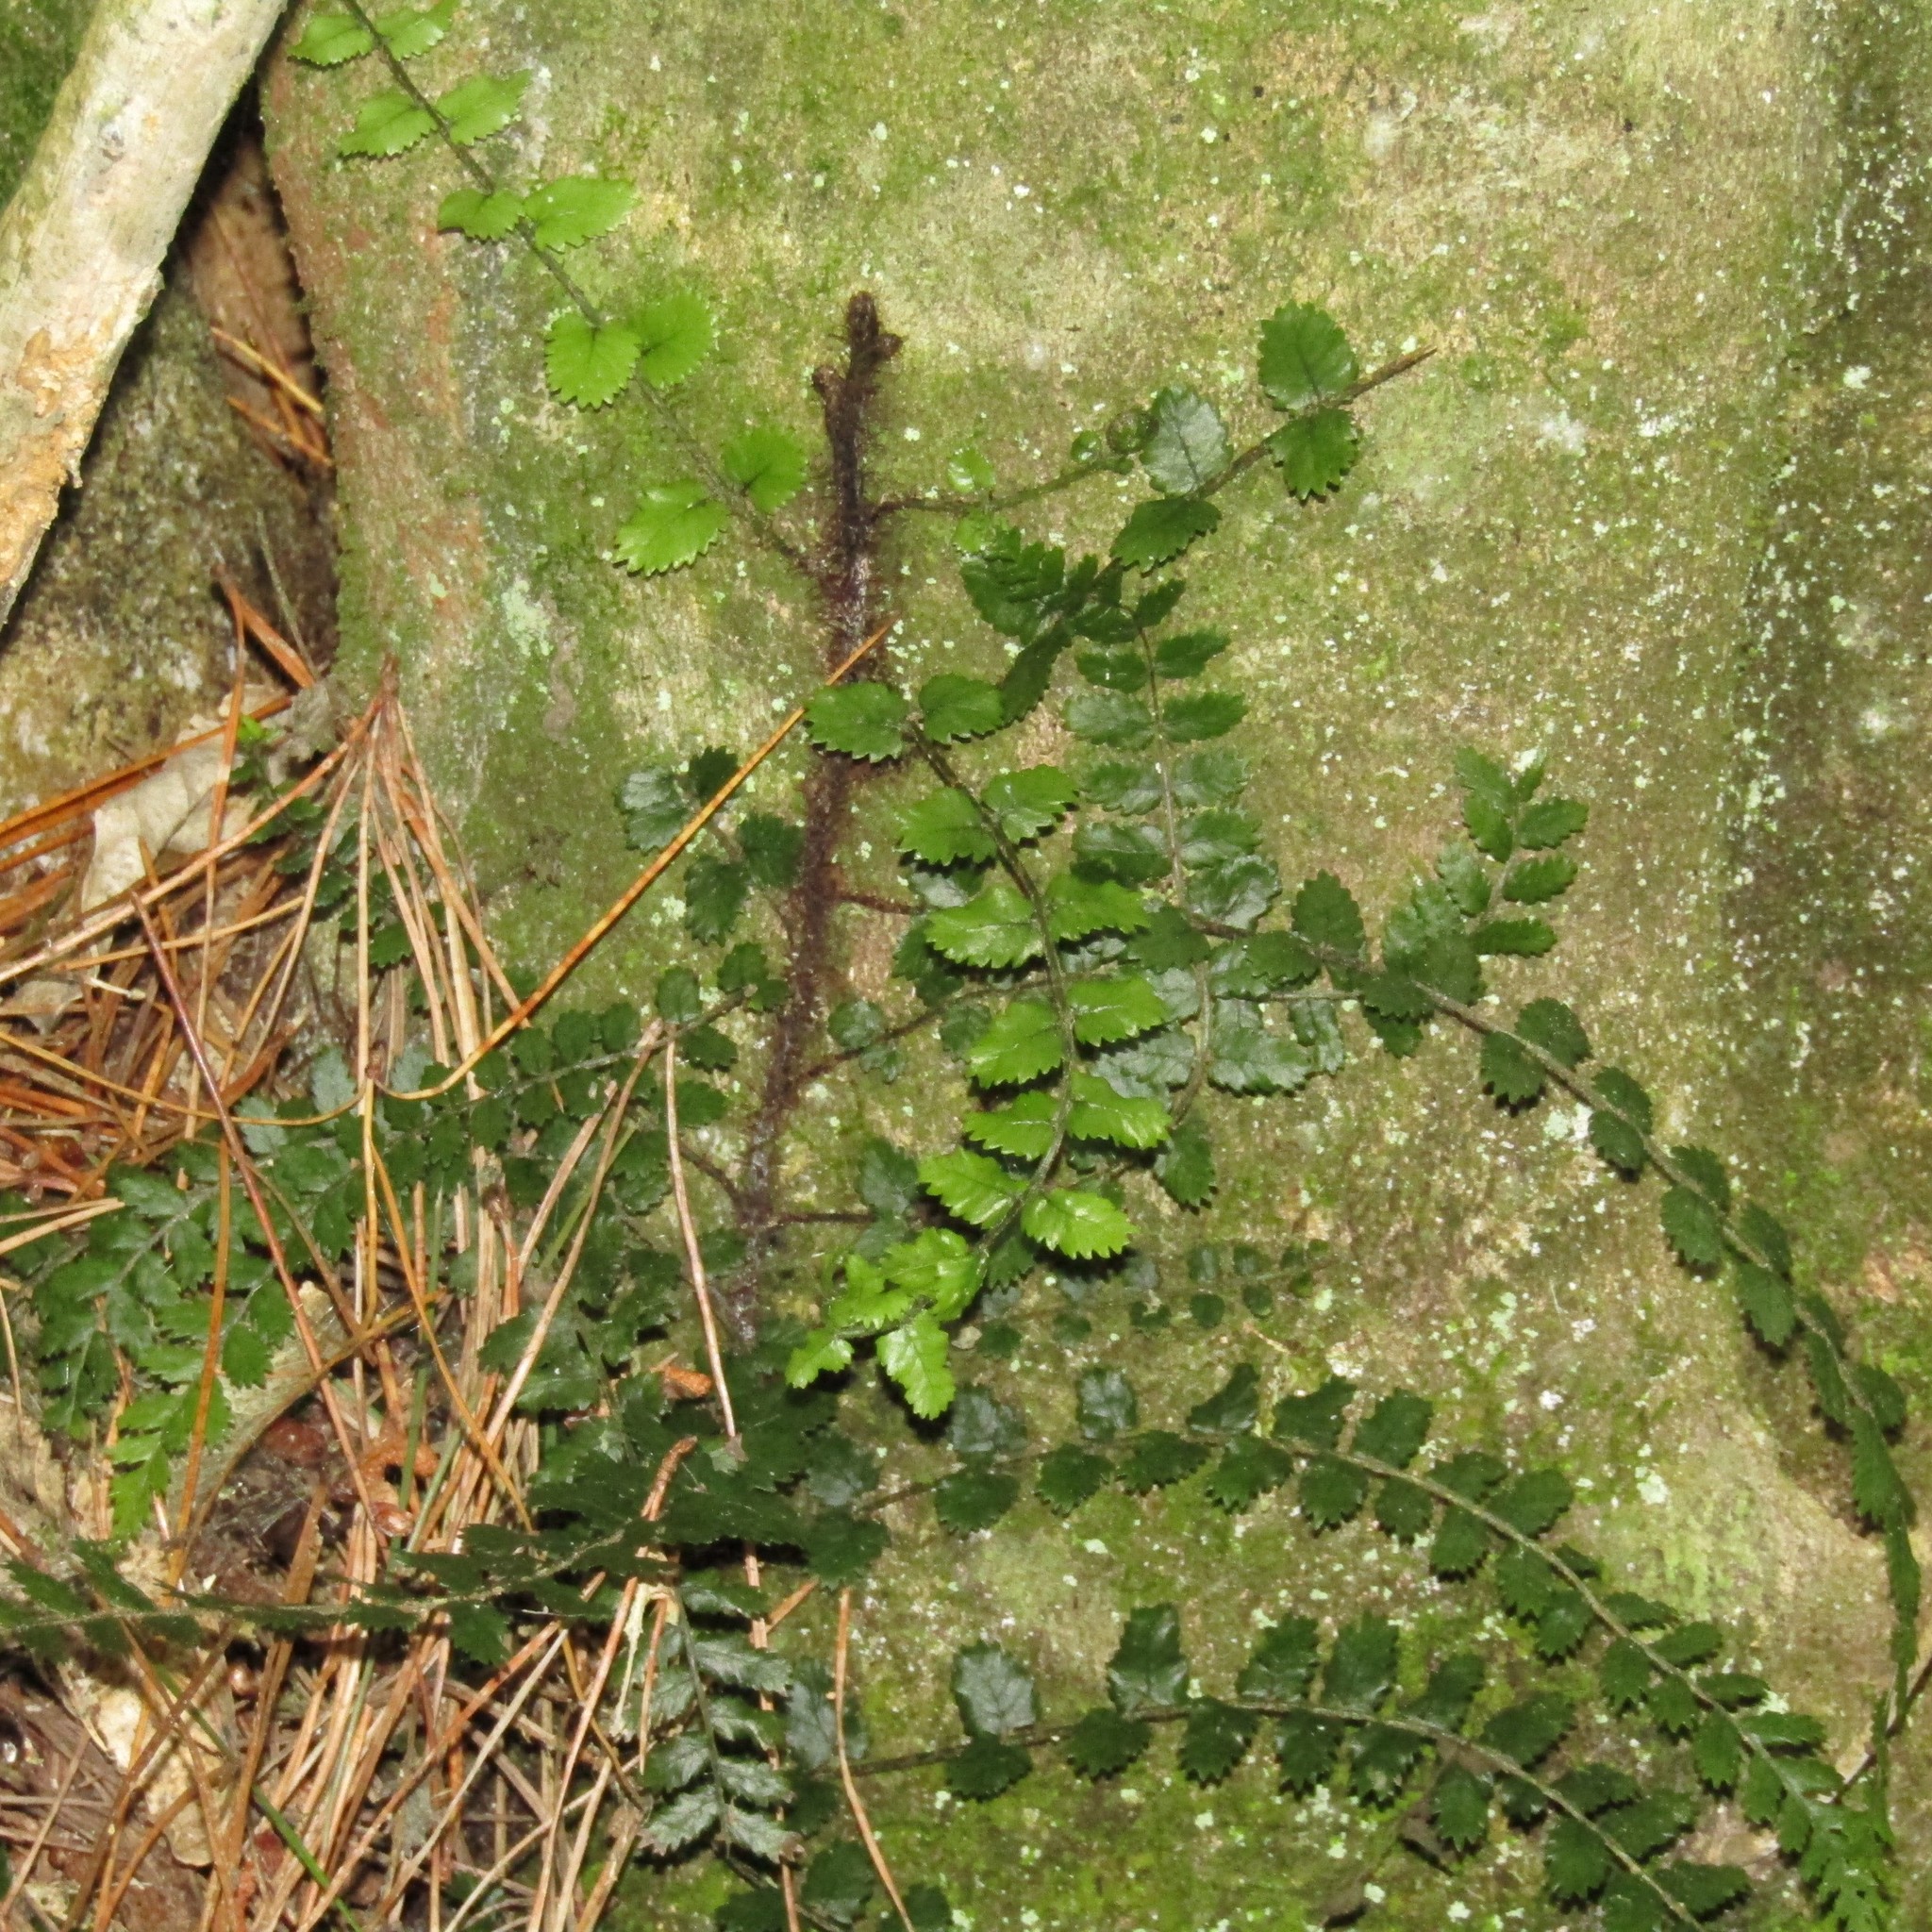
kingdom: Plantae
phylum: Tracheophyta
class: Polypodiopsida
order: Polypodiales
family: Blechnaceae
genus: Icarus
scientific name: Icarus filiformis
